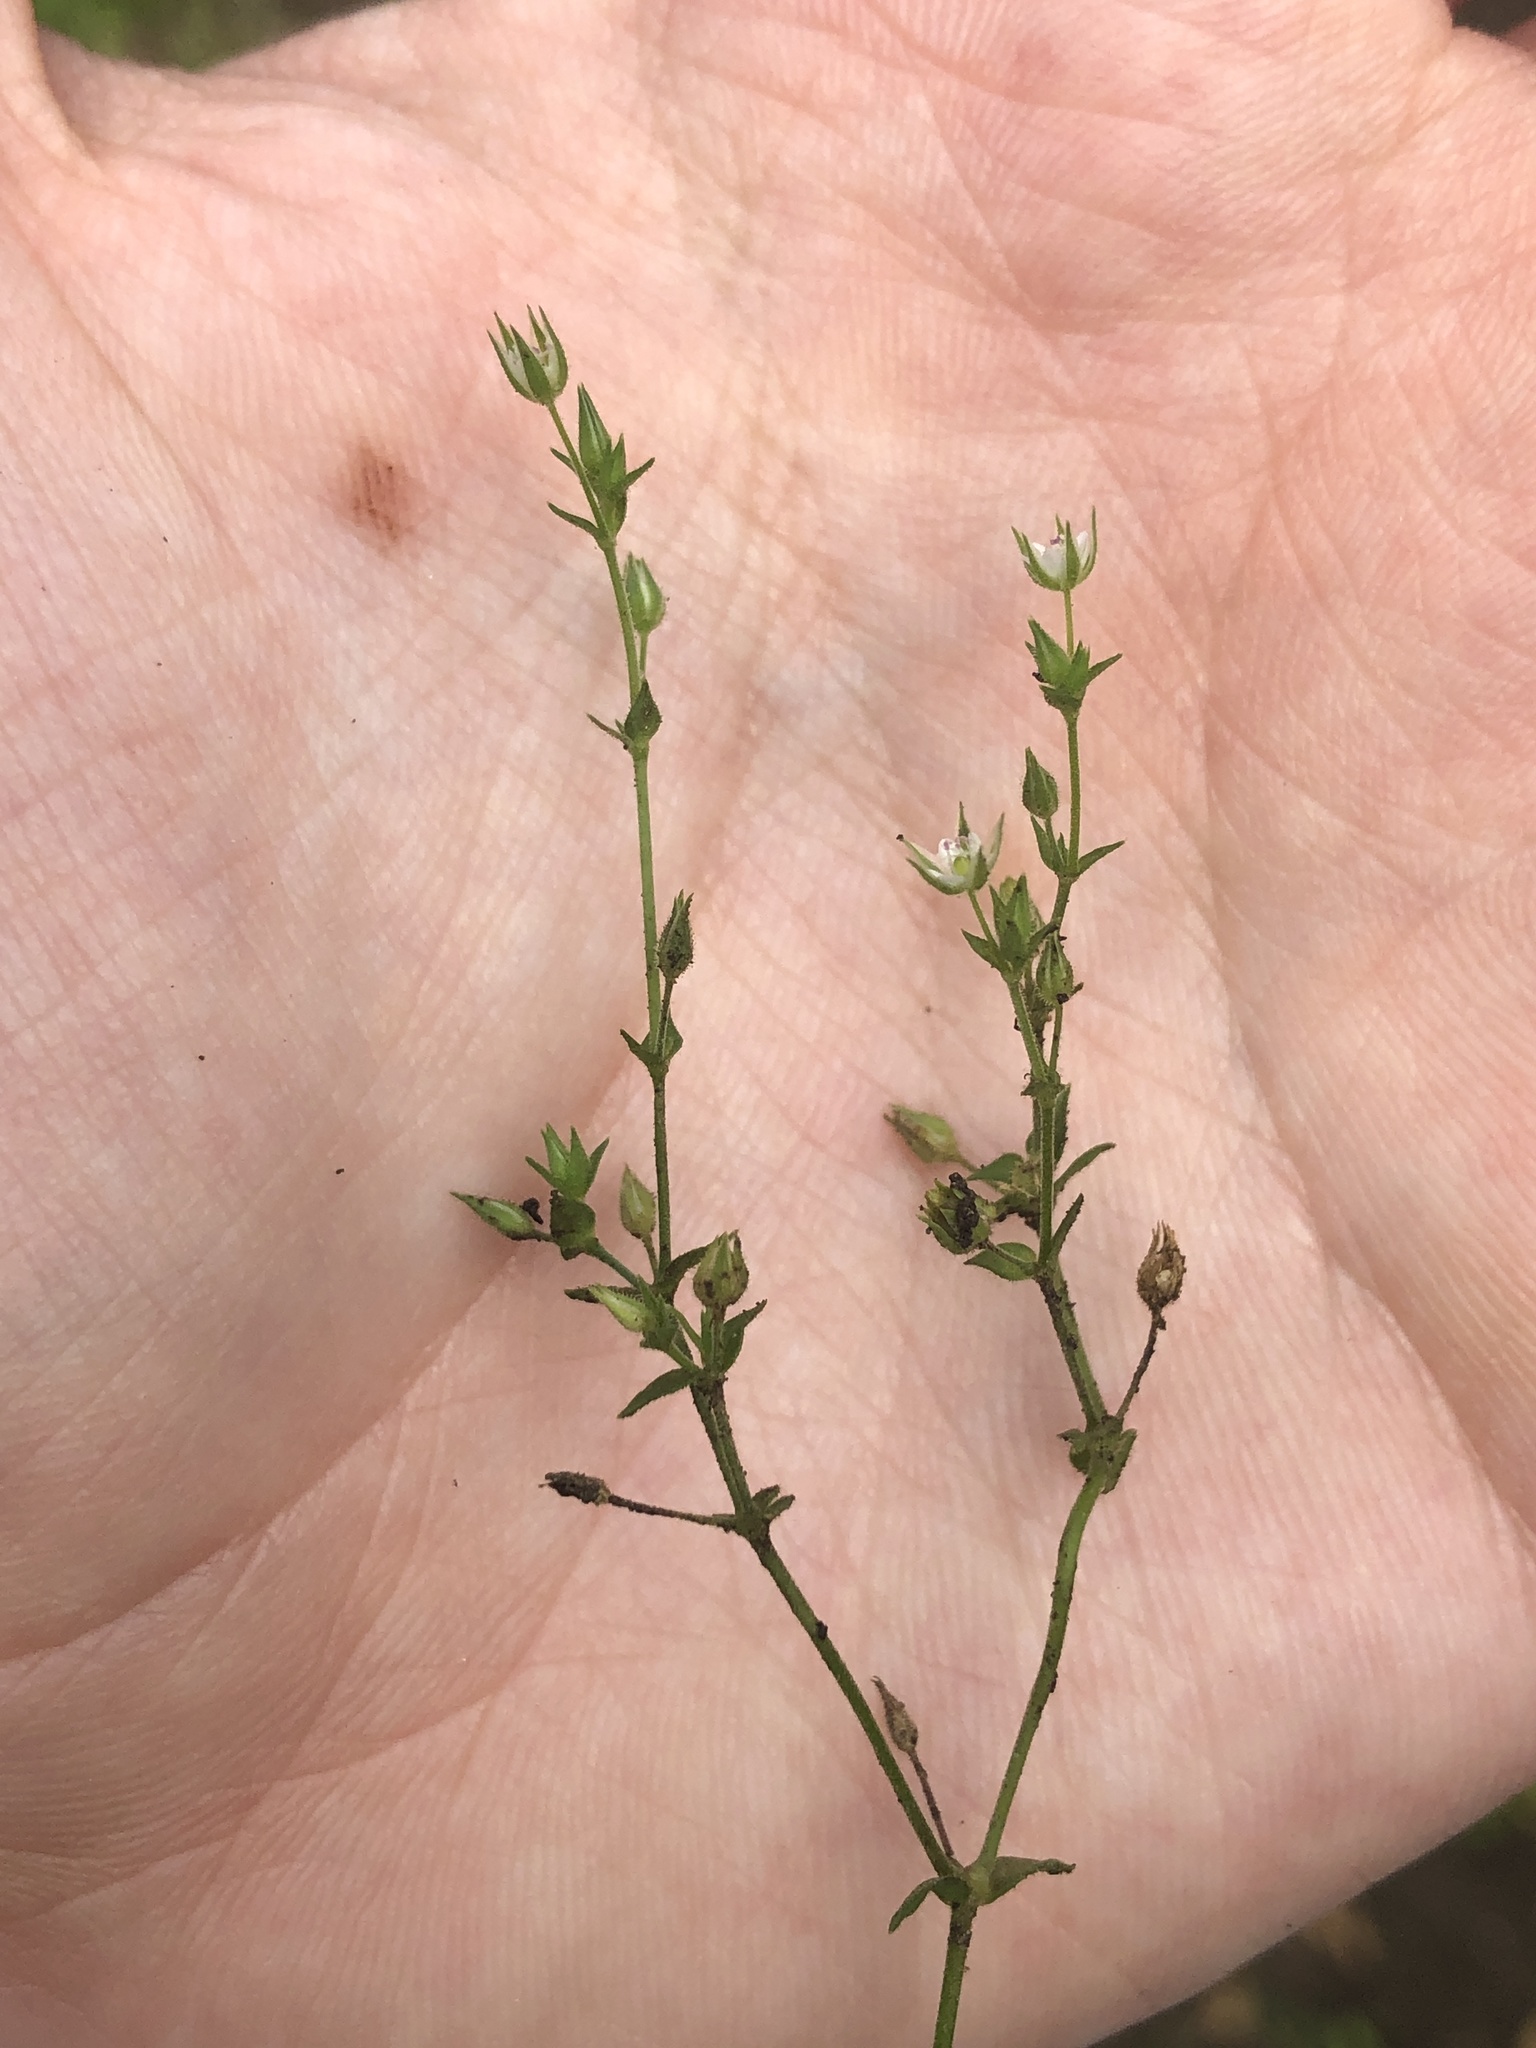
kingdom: Plantae
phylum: Tracheophyta
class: Magnoliopsida
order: Caryophyllales
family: Caryophyllaceae
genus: Arenaria
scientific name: Arenaria serpyllifolia
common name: Thyme-leaved sandwort
